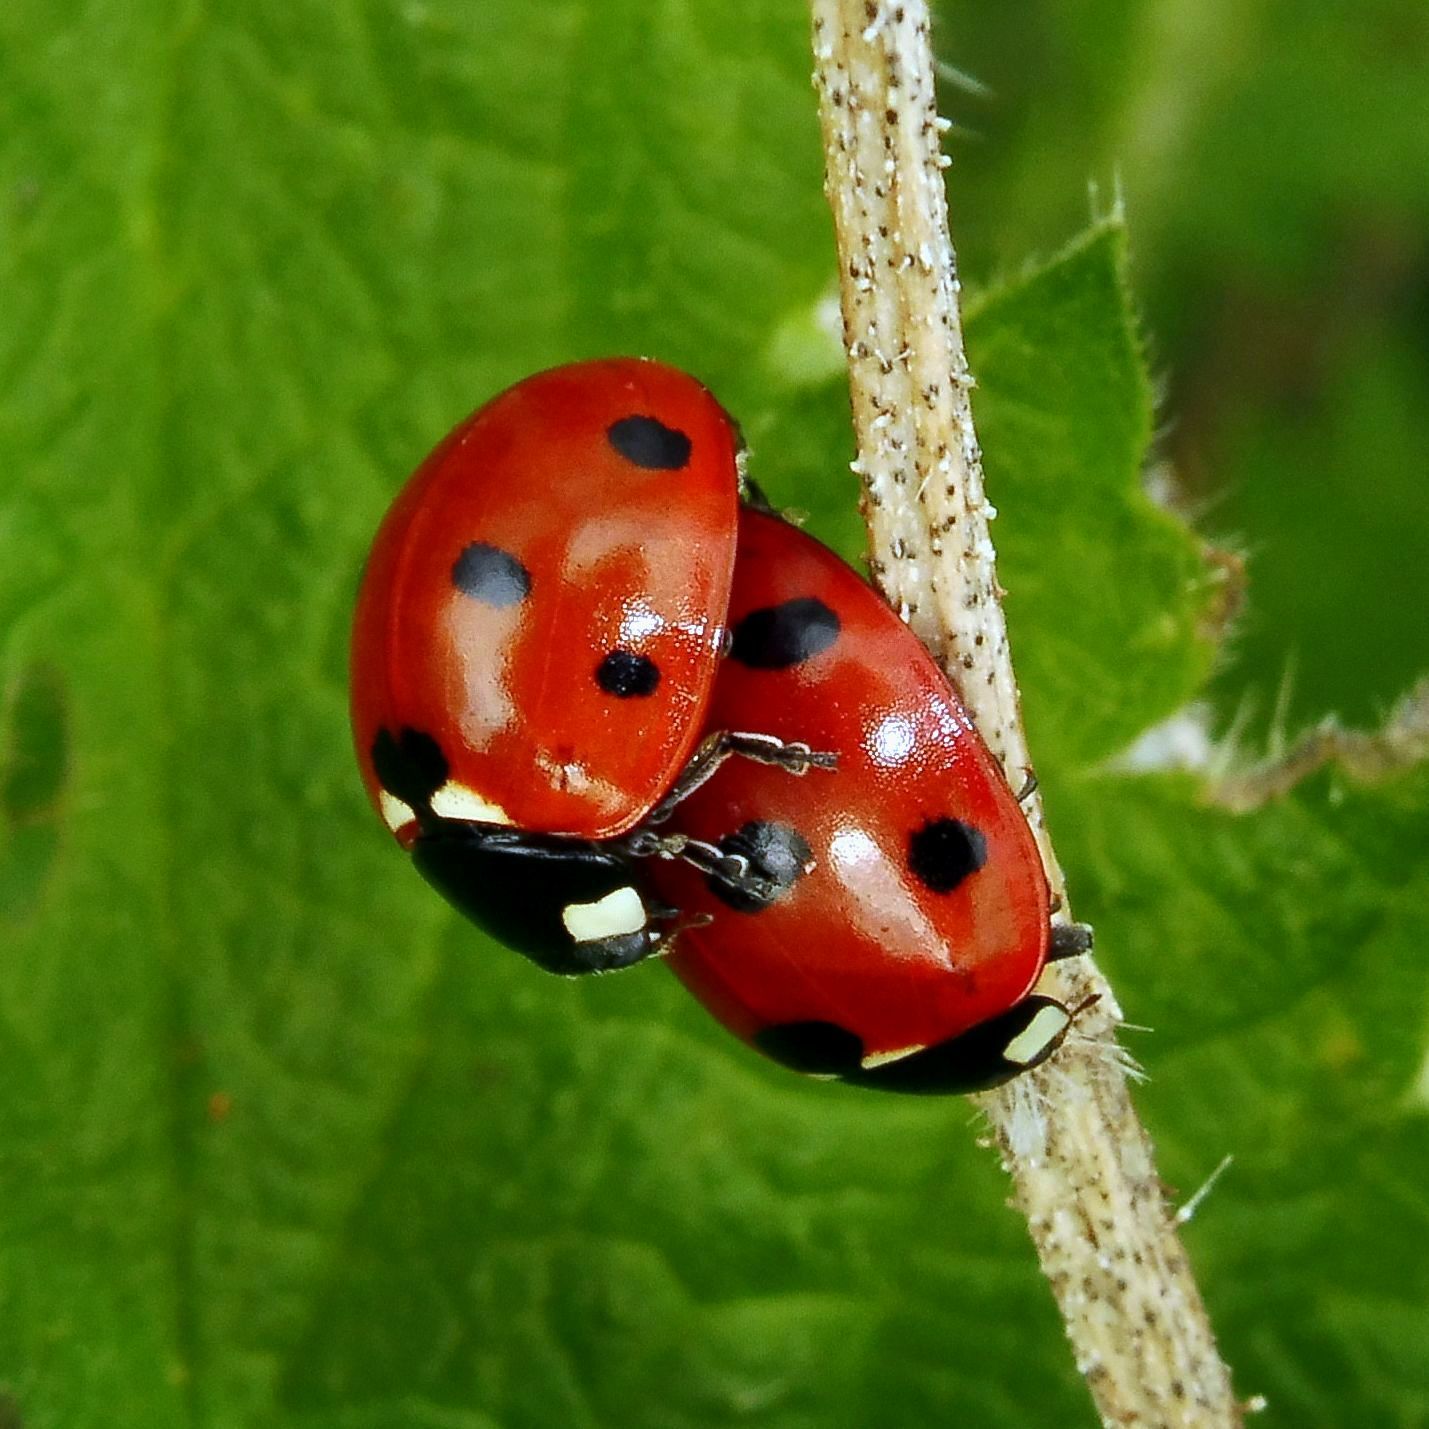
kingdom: Animalia
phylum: Arthropoda
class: Insecta
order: Coleoptera
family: Coccinellidae
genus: Coccinella
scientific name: Coccinella septempunctata
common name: Sevenspotted lady beetle
